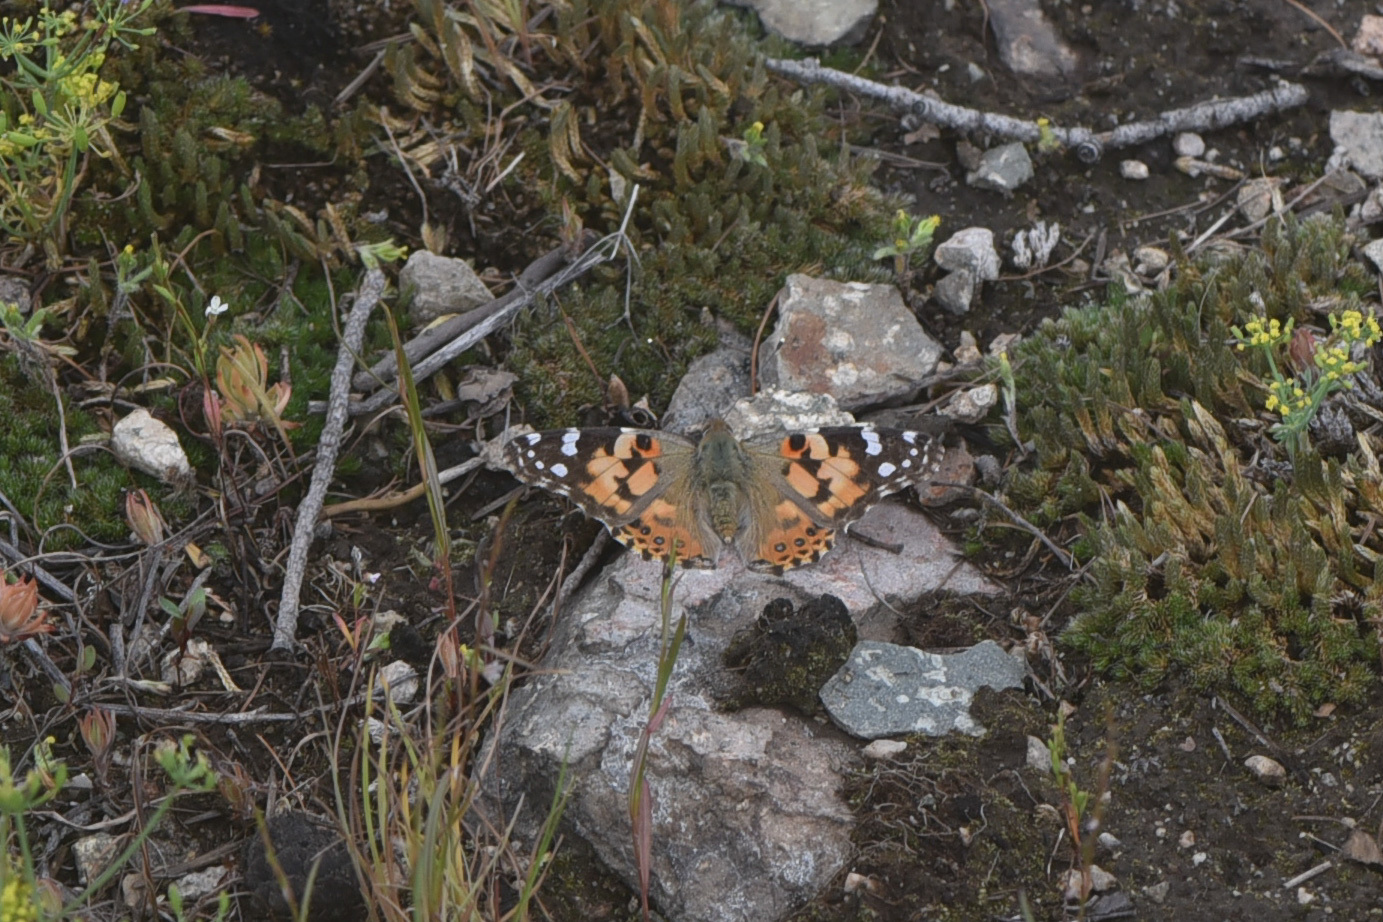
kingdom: Animalia
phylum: Arthropoda
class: Insecta
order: Lepidoptera
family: Nymphalidae
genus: Vanessa
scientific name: Vanessa cardui
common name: Painted lady
